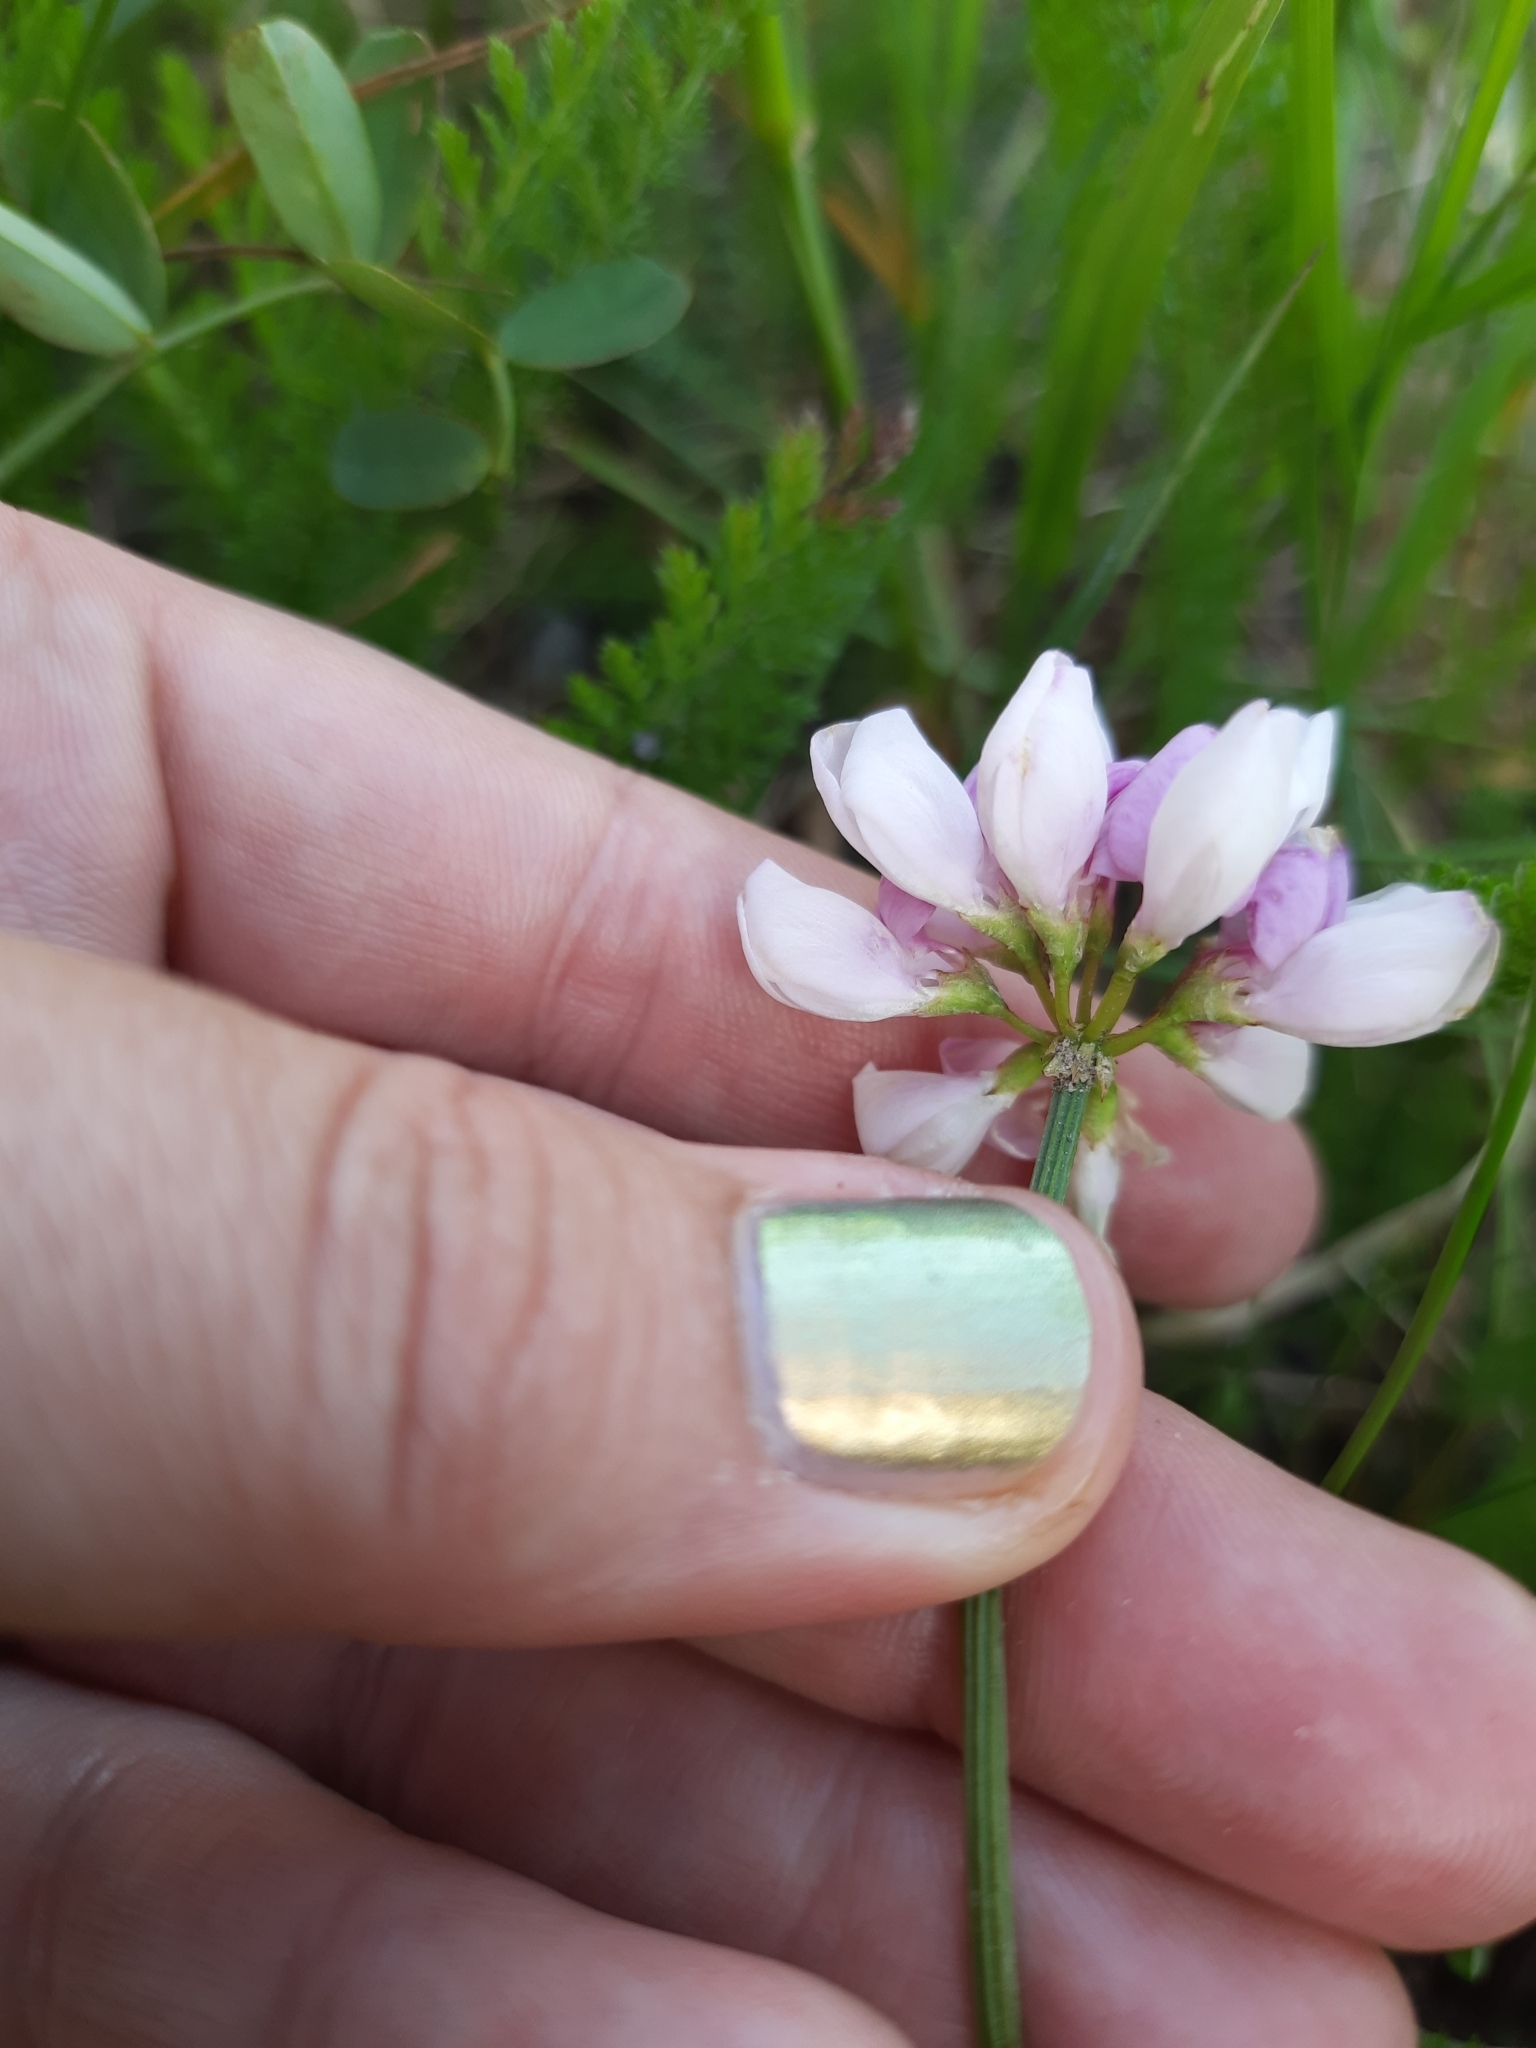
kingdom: Plantae
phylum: Tracheophyta
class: Magnoliopsida
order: Fabales
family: Fabaceae
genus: Coronilla
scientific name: Coronilla varia
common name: Crownvetch
